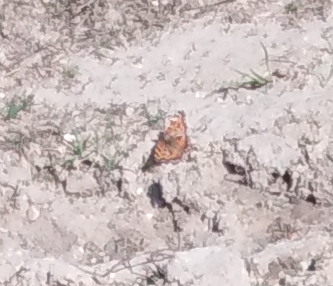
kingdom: Animalia
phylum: Arthropoda
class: Insecta
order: Lepidoptera
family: Nymphalidae
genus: Nymphalis
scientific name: Nymphalis xanthomelas
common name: Scarce tortoiseshell
